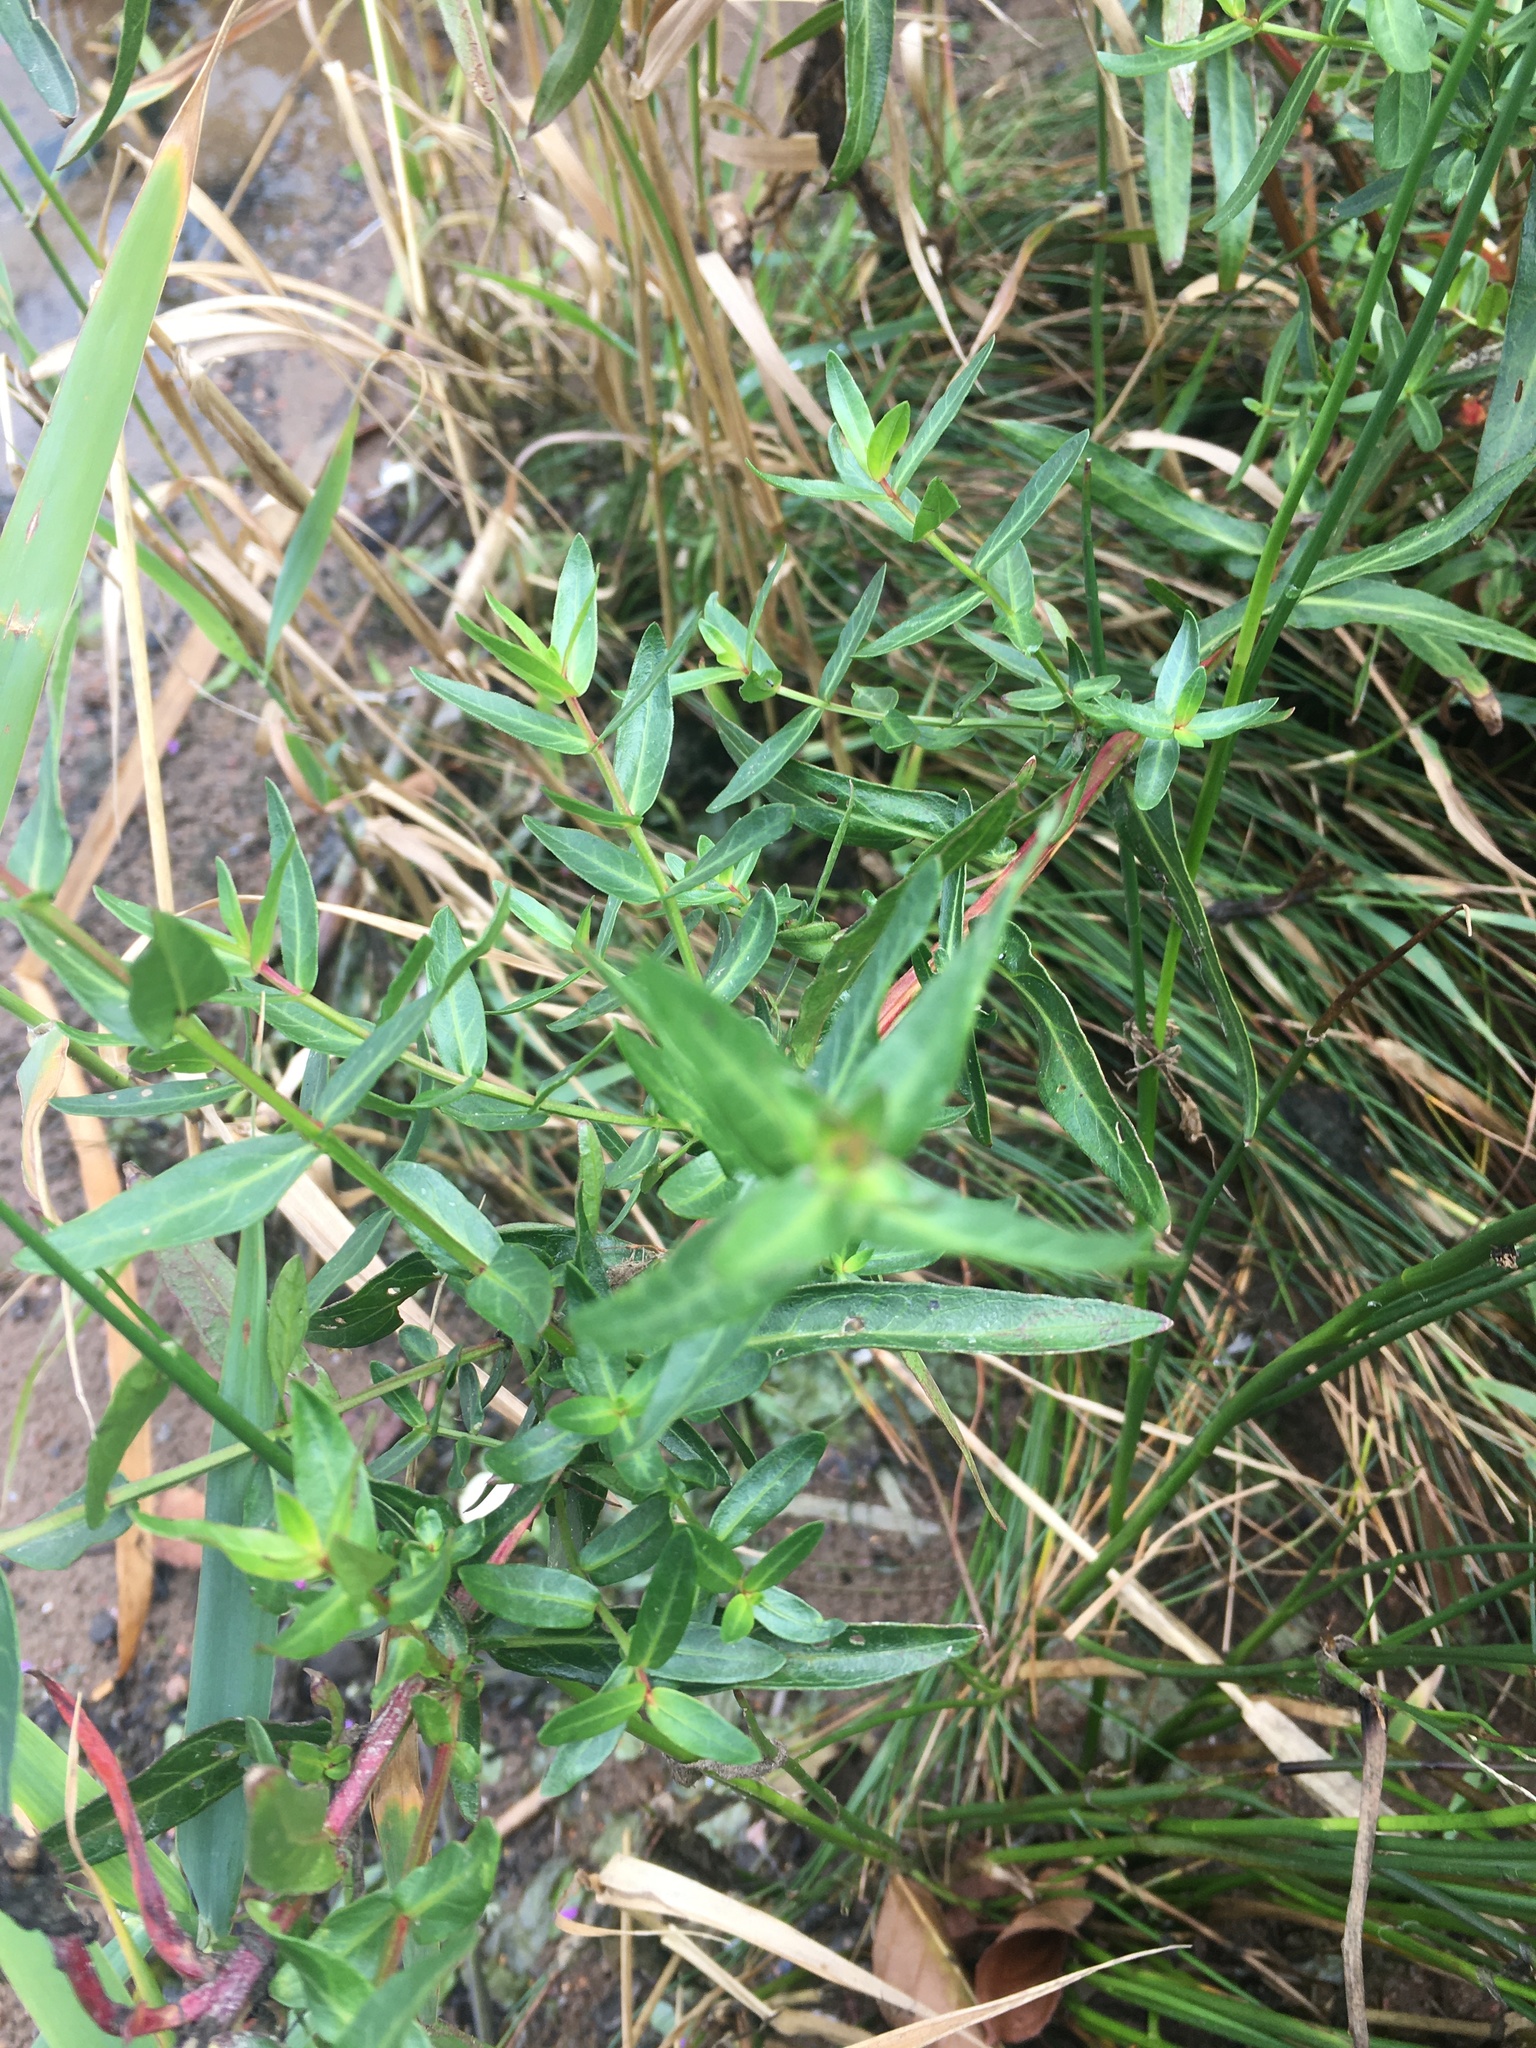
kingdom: Plantae
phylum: Tracheophyta
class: Magnoliopsida
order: Myrtales
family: Lythraceae
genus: Lythrum
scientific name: Lythrum salicaria
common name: Purple loosestrife
